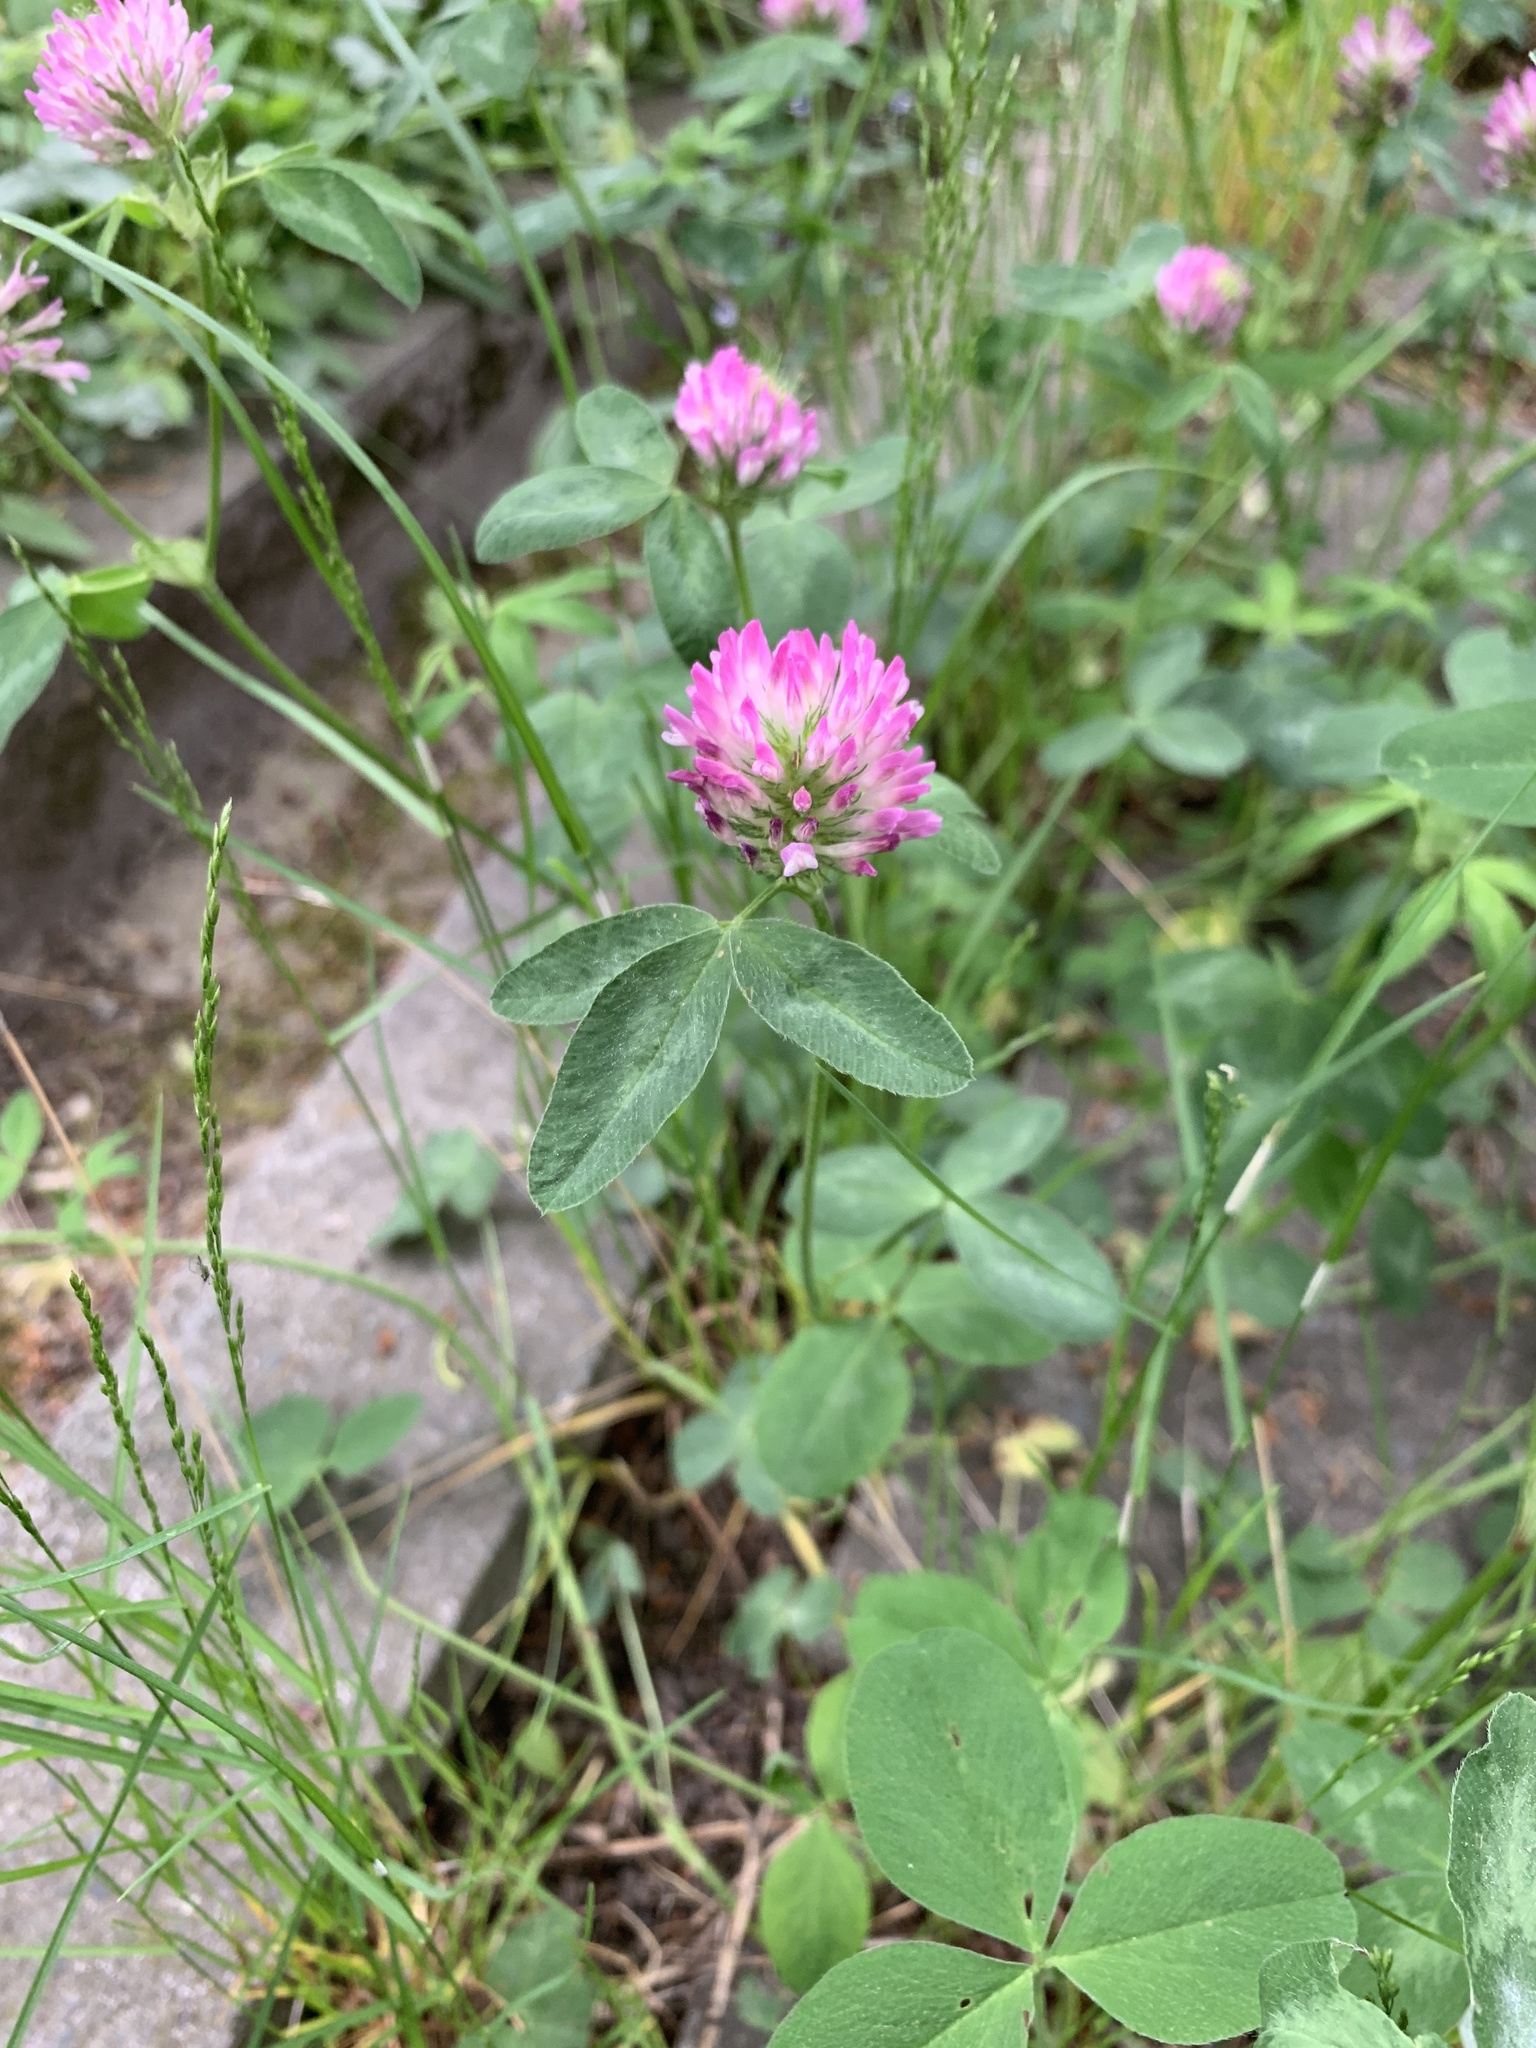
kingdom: Plantae
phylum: Tracheophyta
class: Magnoliopsida
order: Fabales
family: Fabaceae
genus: Trifolium
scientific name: Trifolium pratense
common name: Red clover
